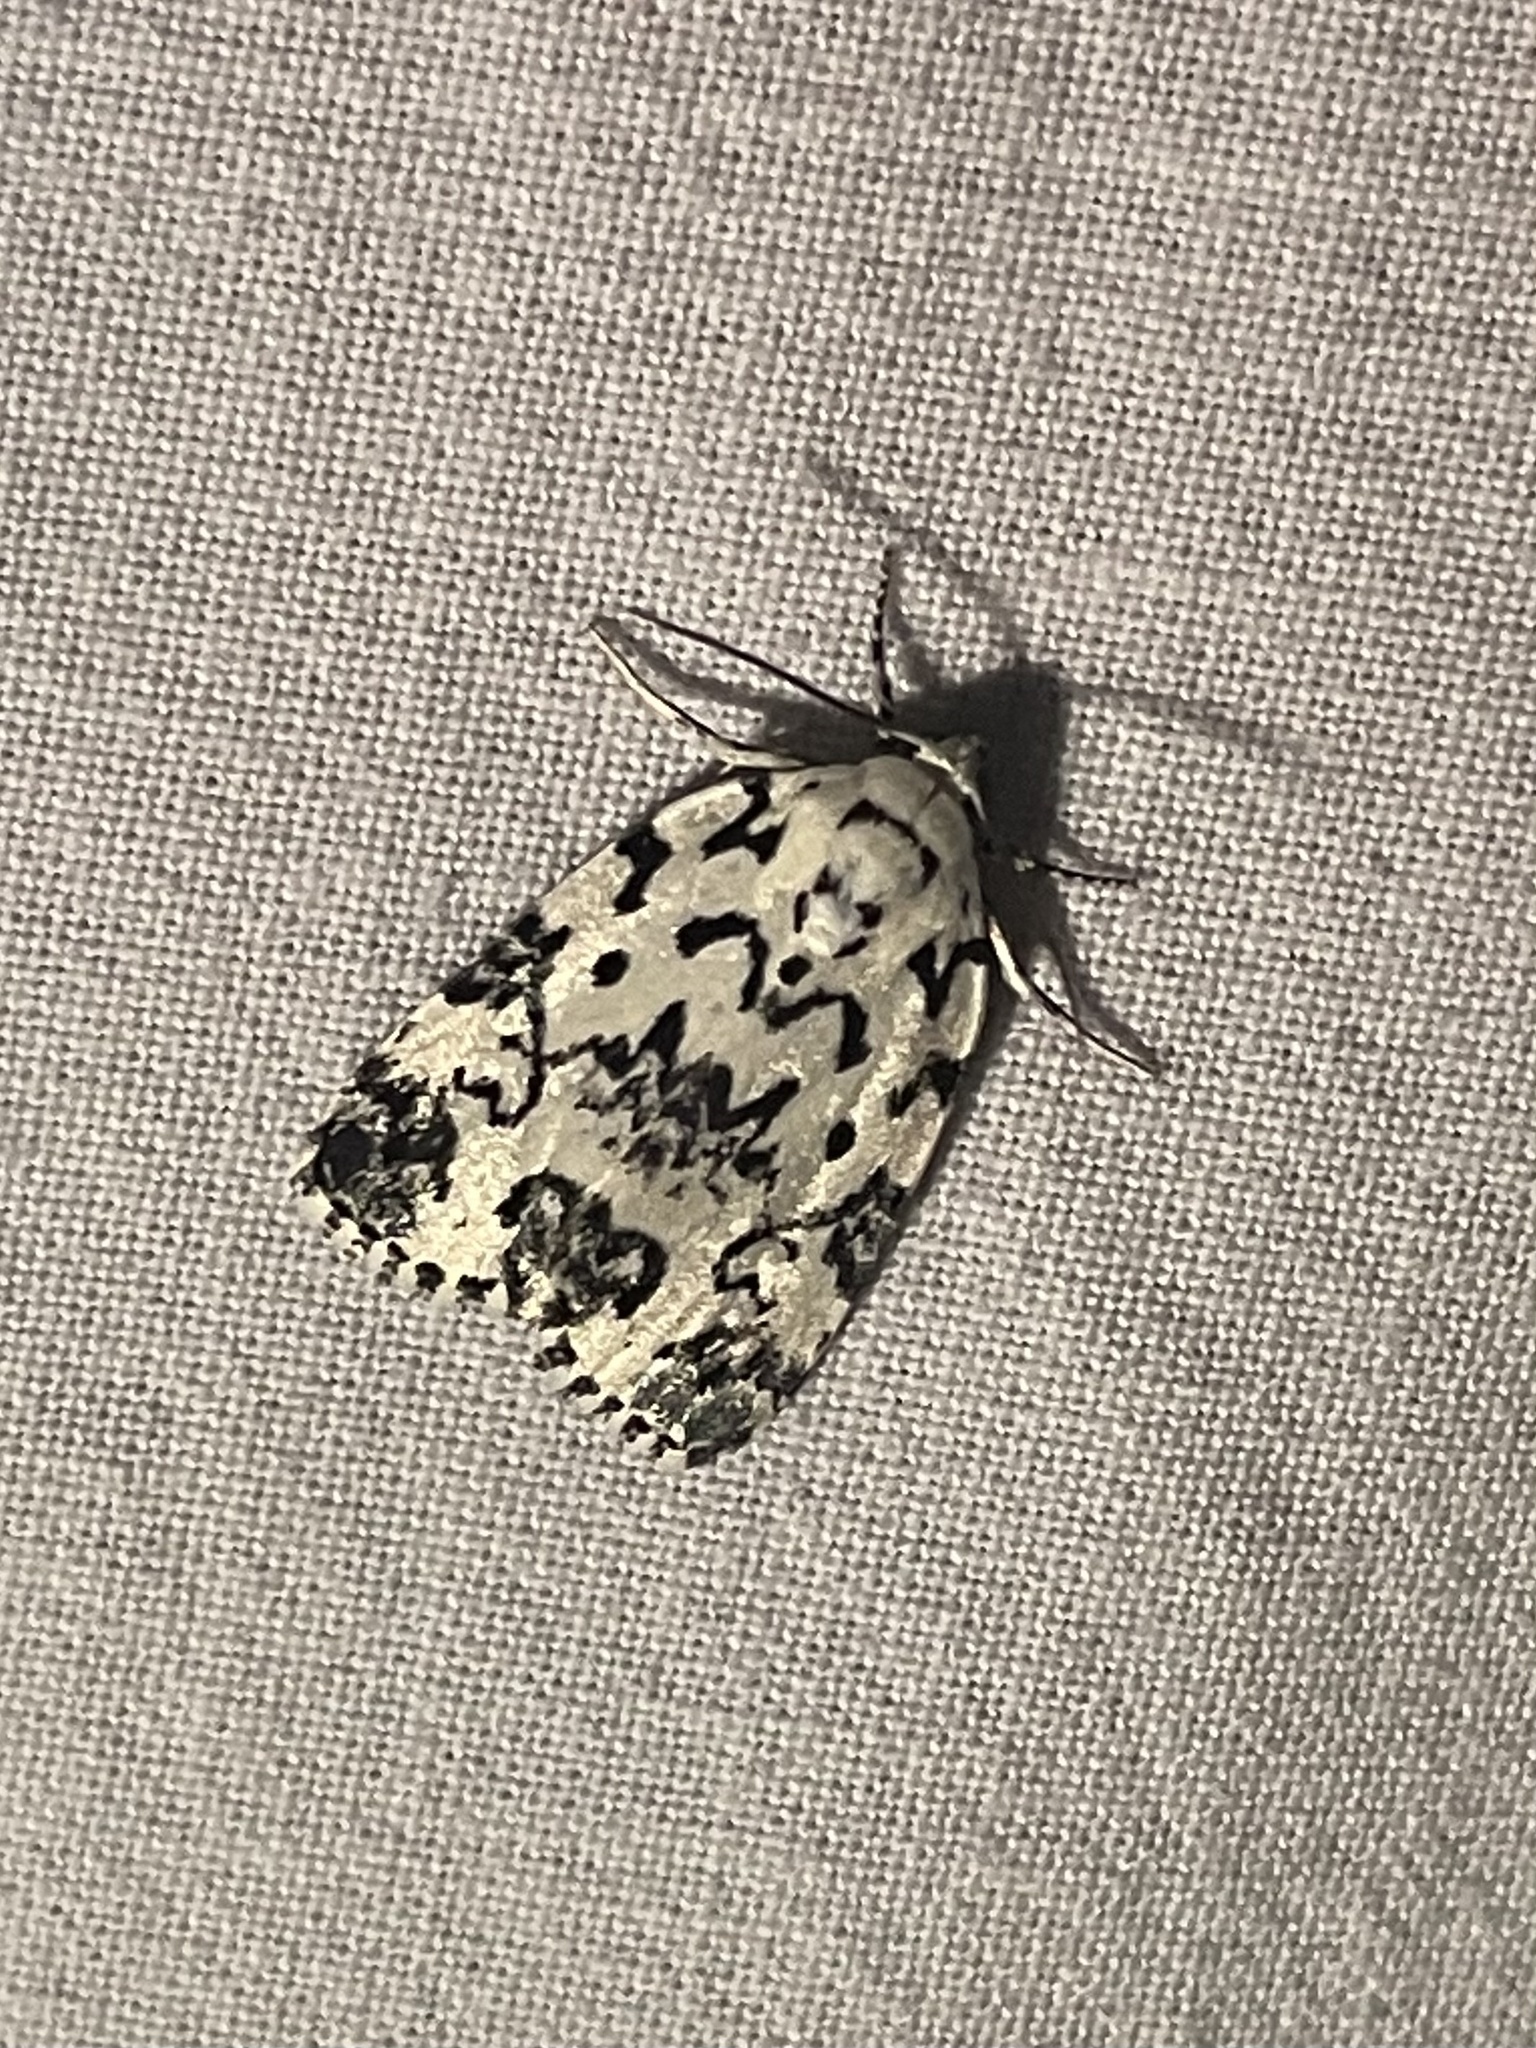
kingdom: Animalia
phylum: Arthropoda
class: Insecta
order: Lepidoptera
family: Noctuidae
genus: Polygrammate
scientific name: Polygrammate hebraeicum
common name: Hebrew moth
